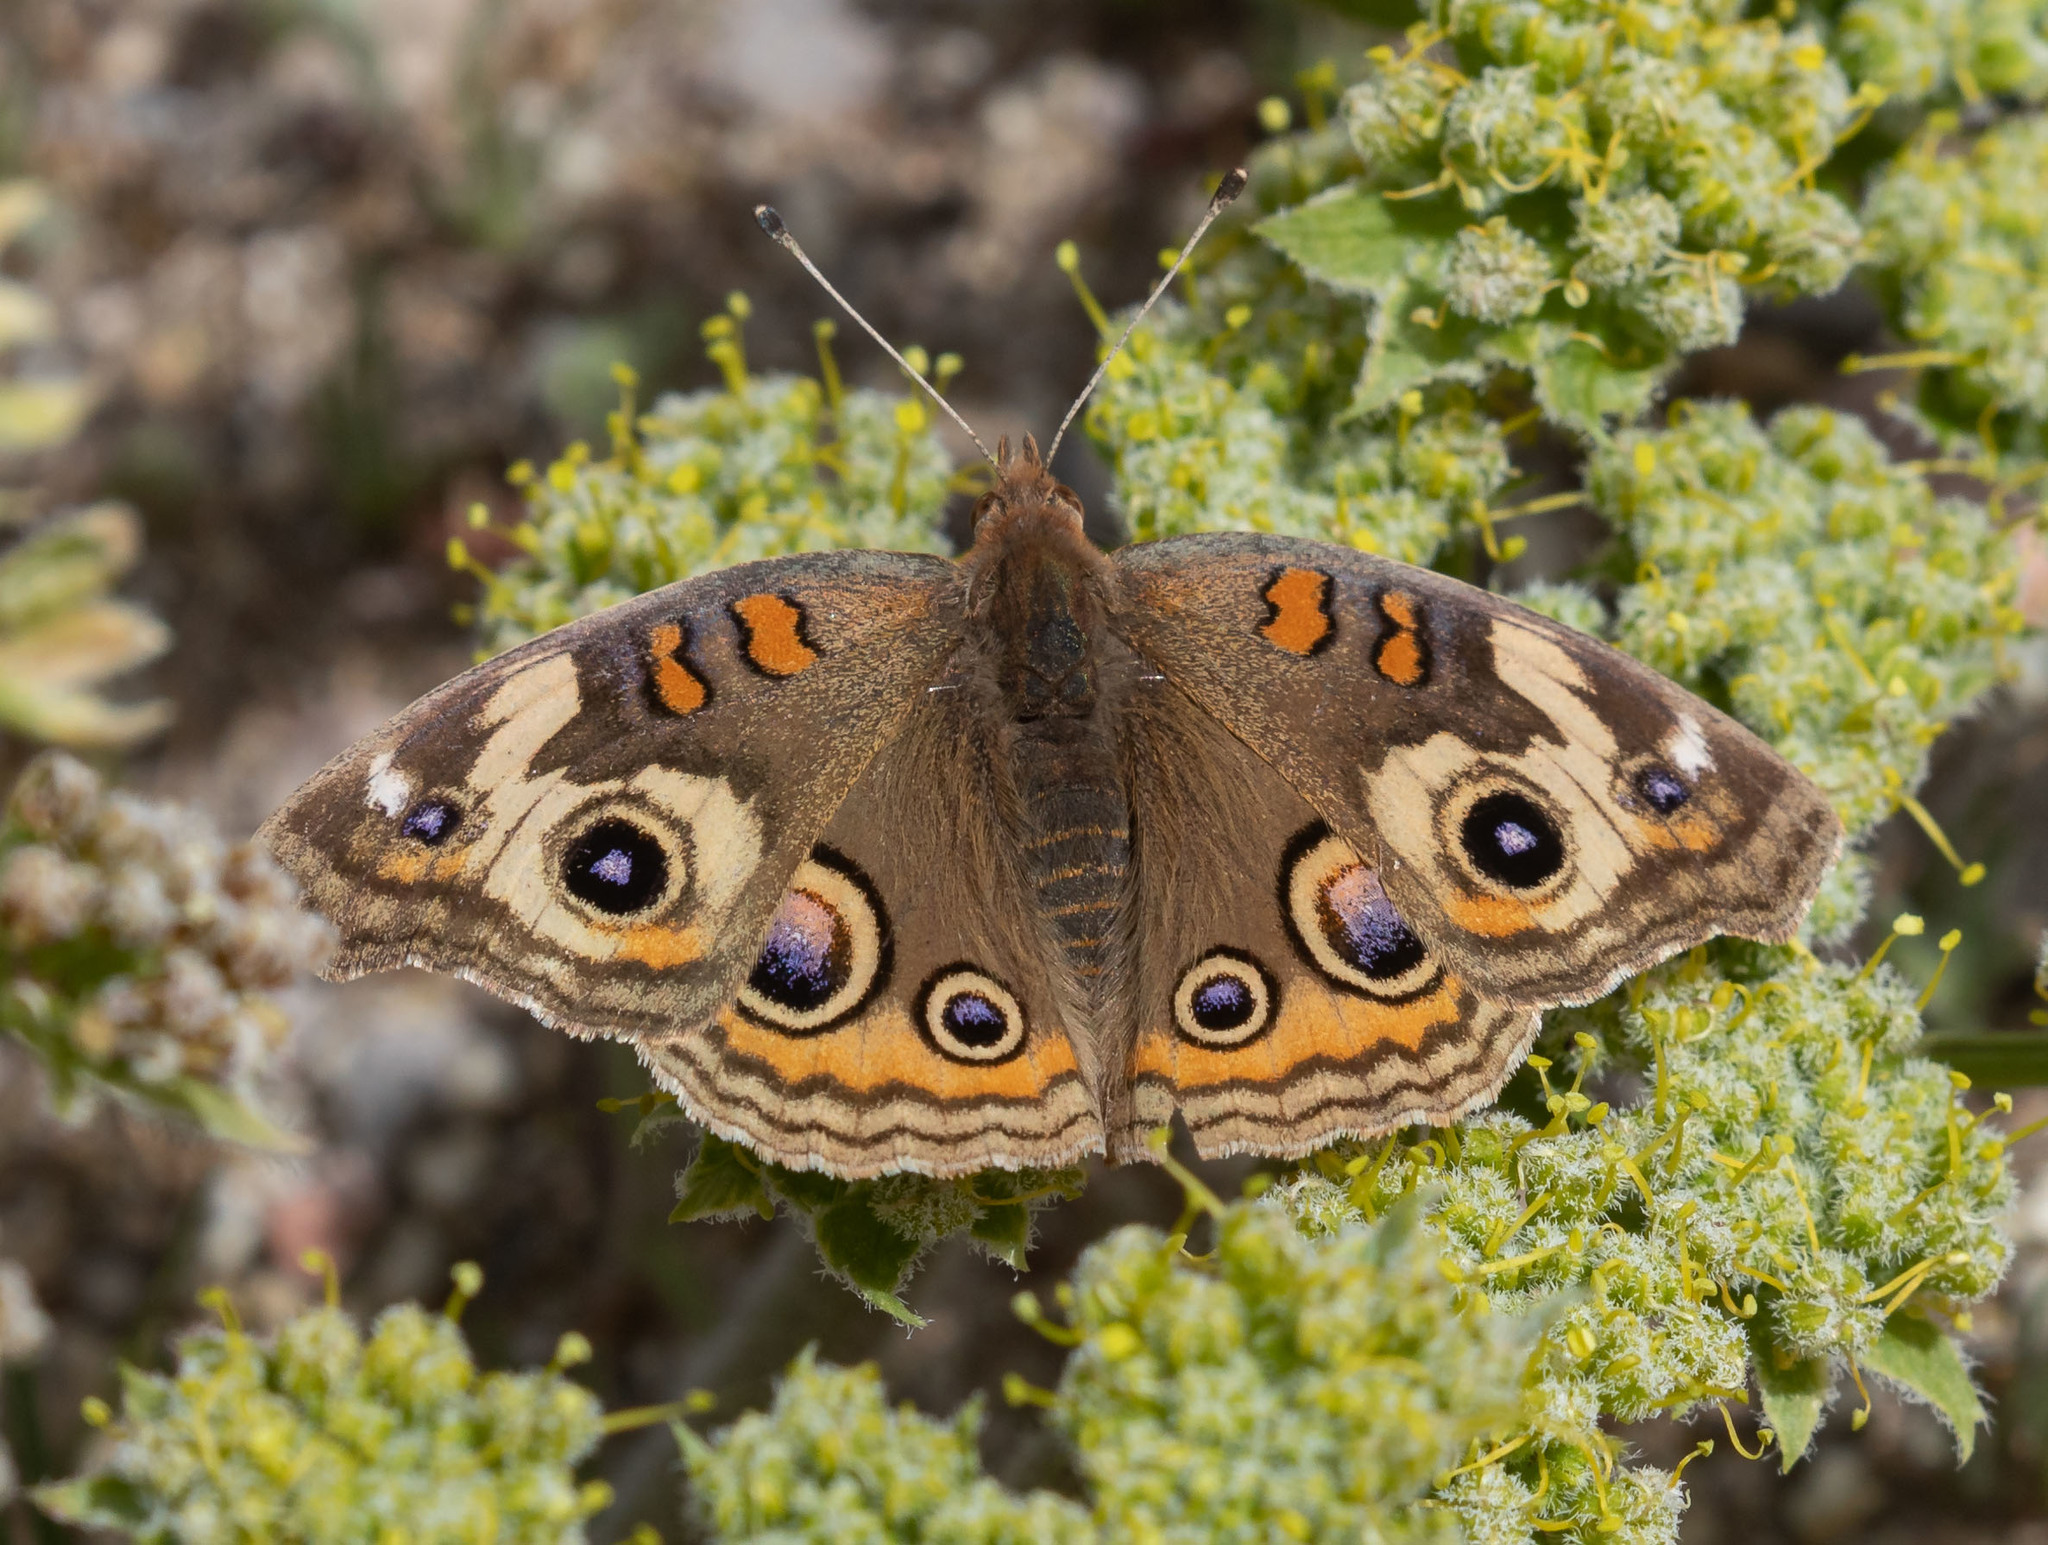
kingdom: Animalia
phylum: Arthropoda
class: Insecta
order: Lepidoptera
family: Nymphalidae
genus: Junonia
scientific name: Junonia grisea
